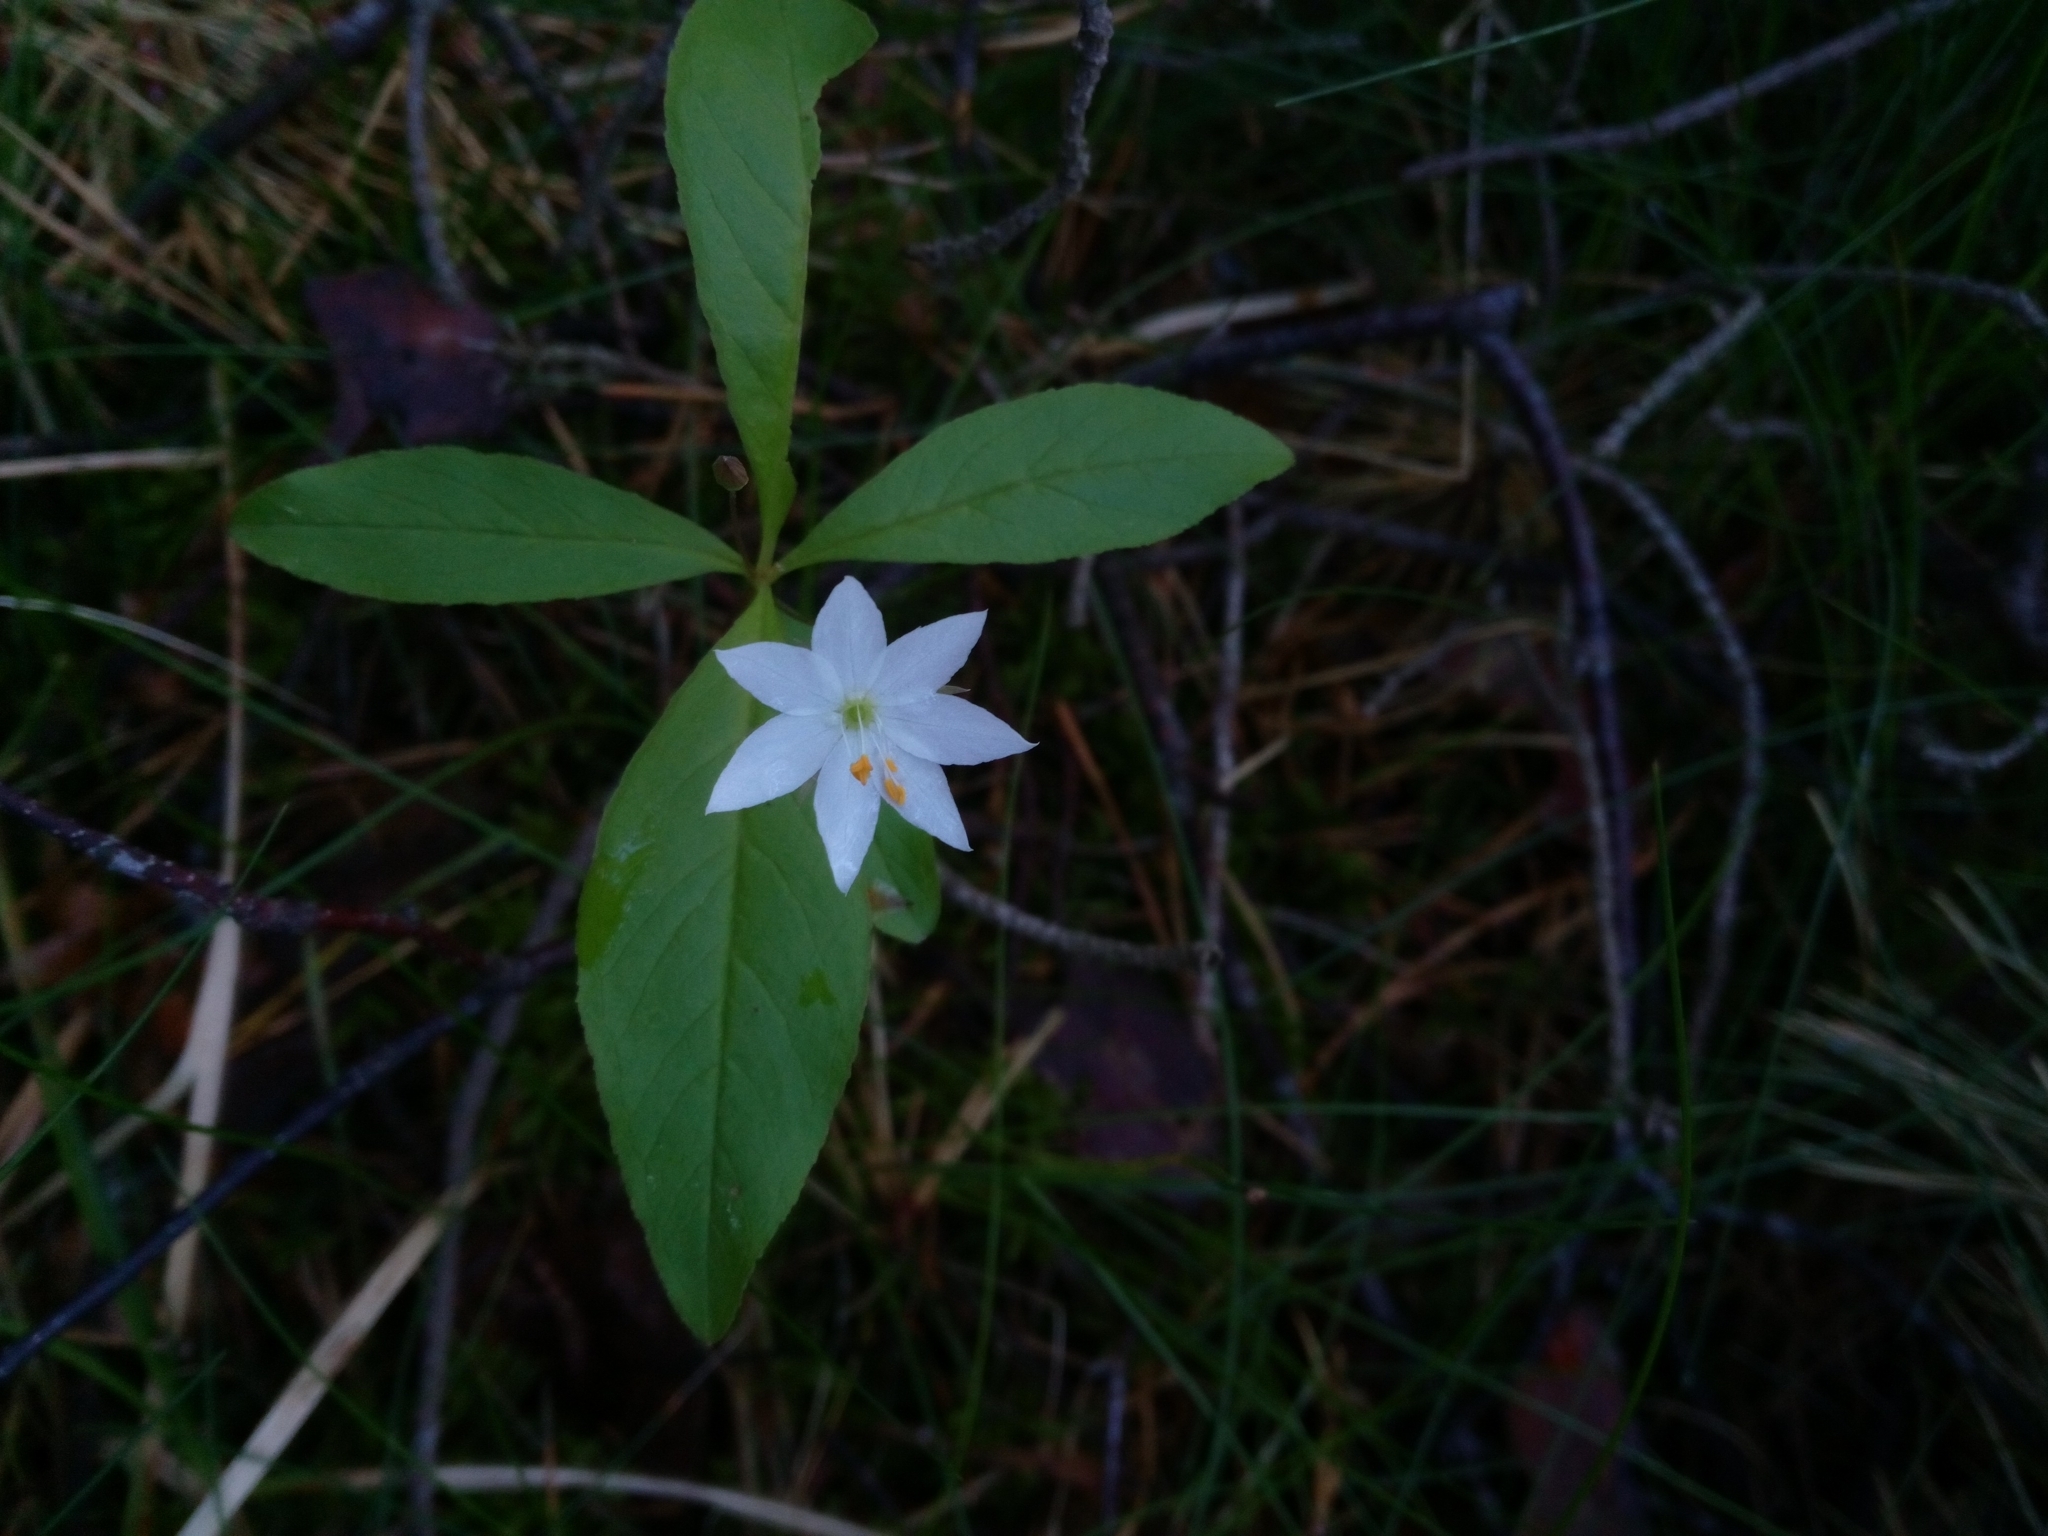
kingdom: Plantae
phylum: Tracheophyta
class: Magnoliopsida
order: Ericales
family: Primulaceae
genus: Lysimachia
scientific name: Lysimachia europaea
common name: Arctic starflower
